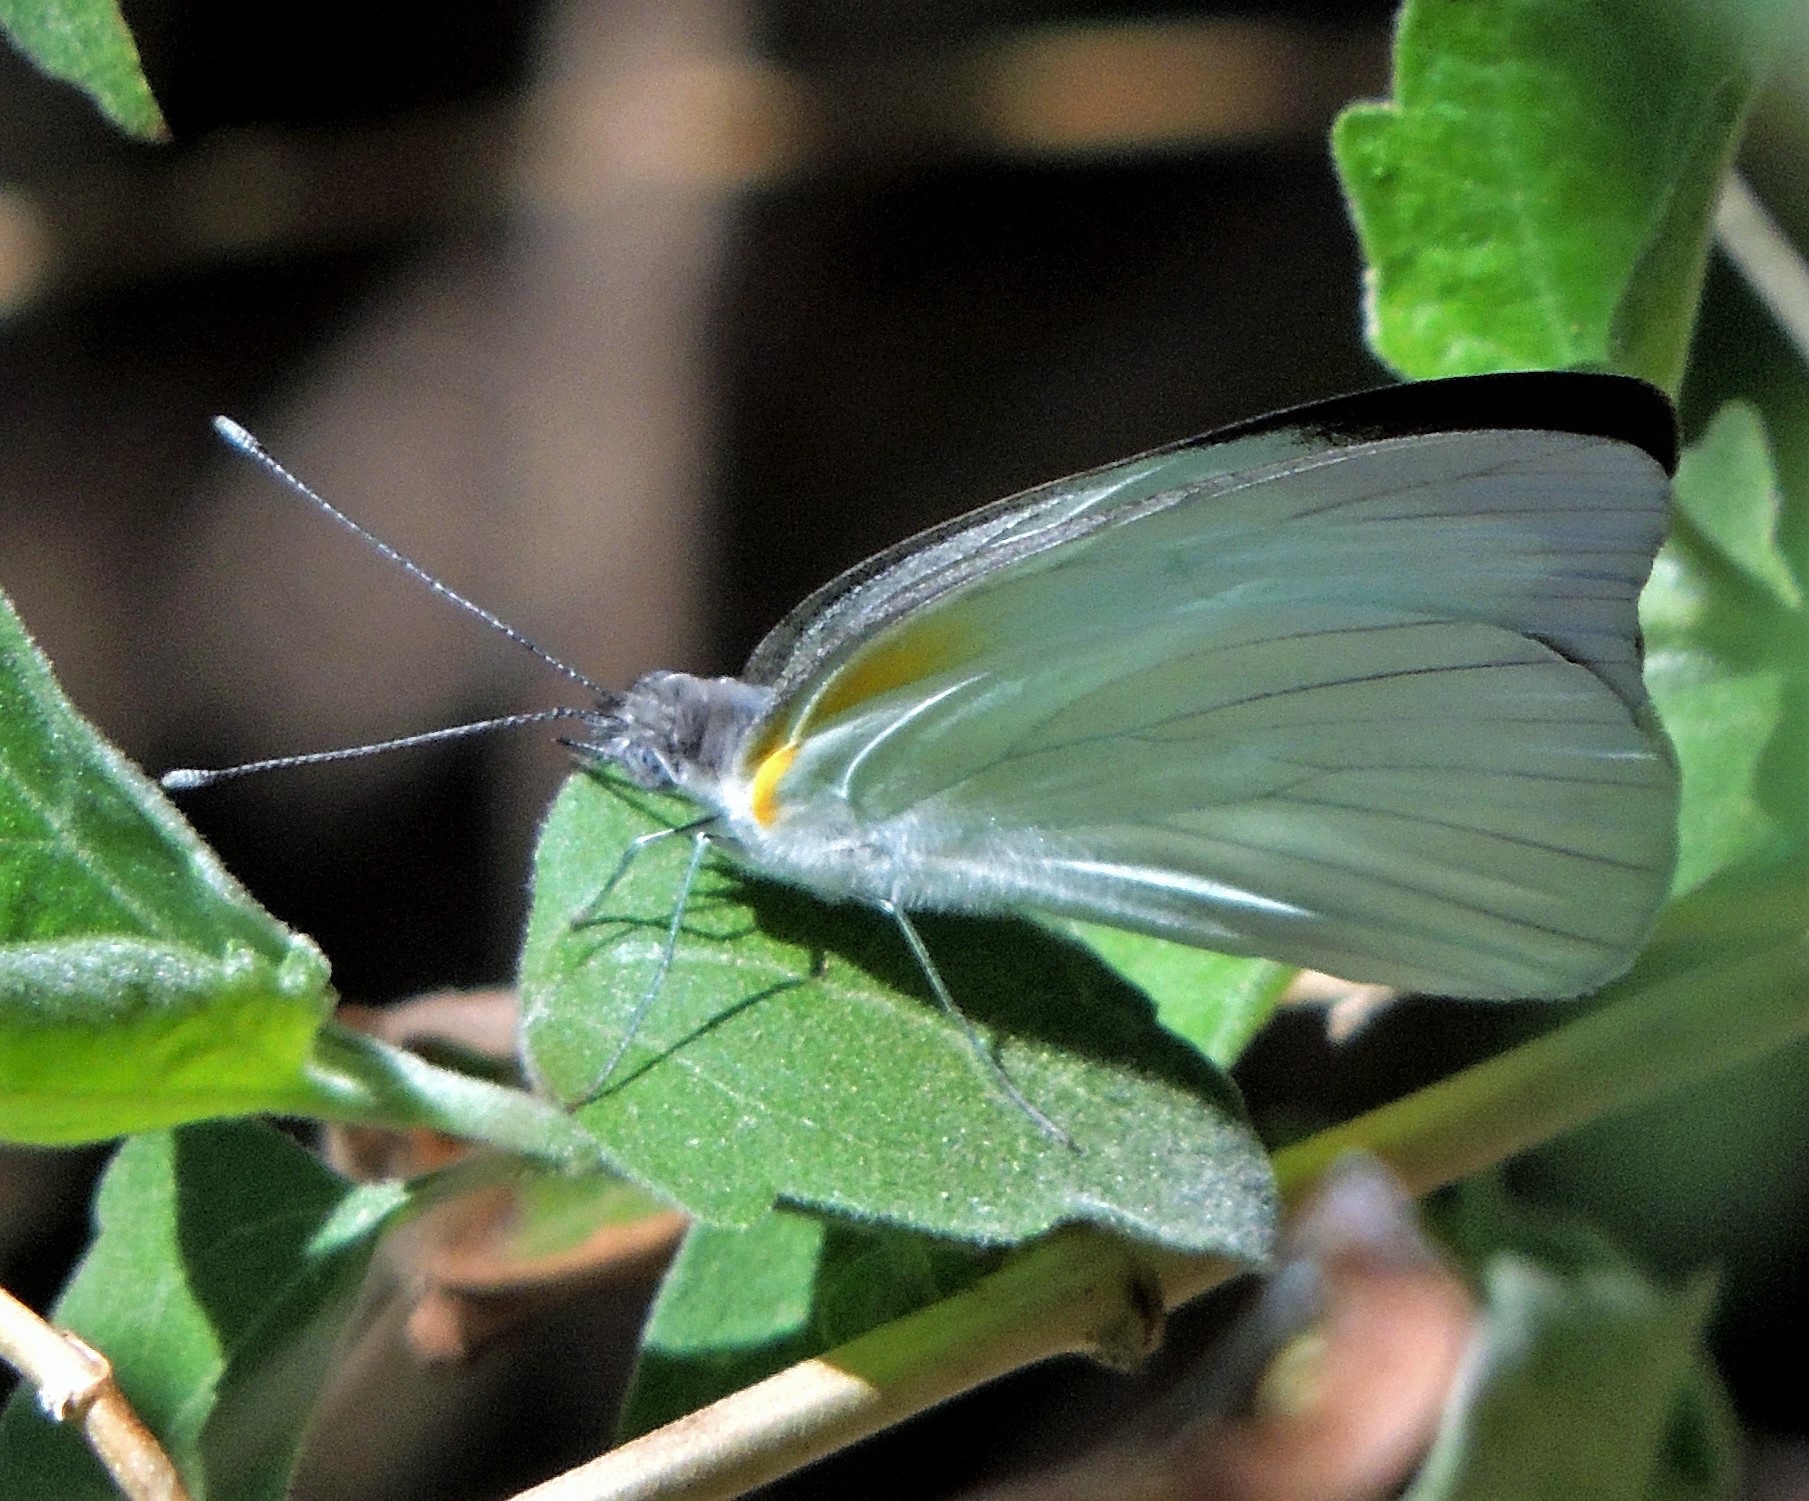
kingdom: Animalia
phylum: Arthropoda
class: Insecta
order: Lepidoptera
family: Pieridae
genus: Glutophrissa
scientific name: Glutophrissa drusilla
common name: Florida white
